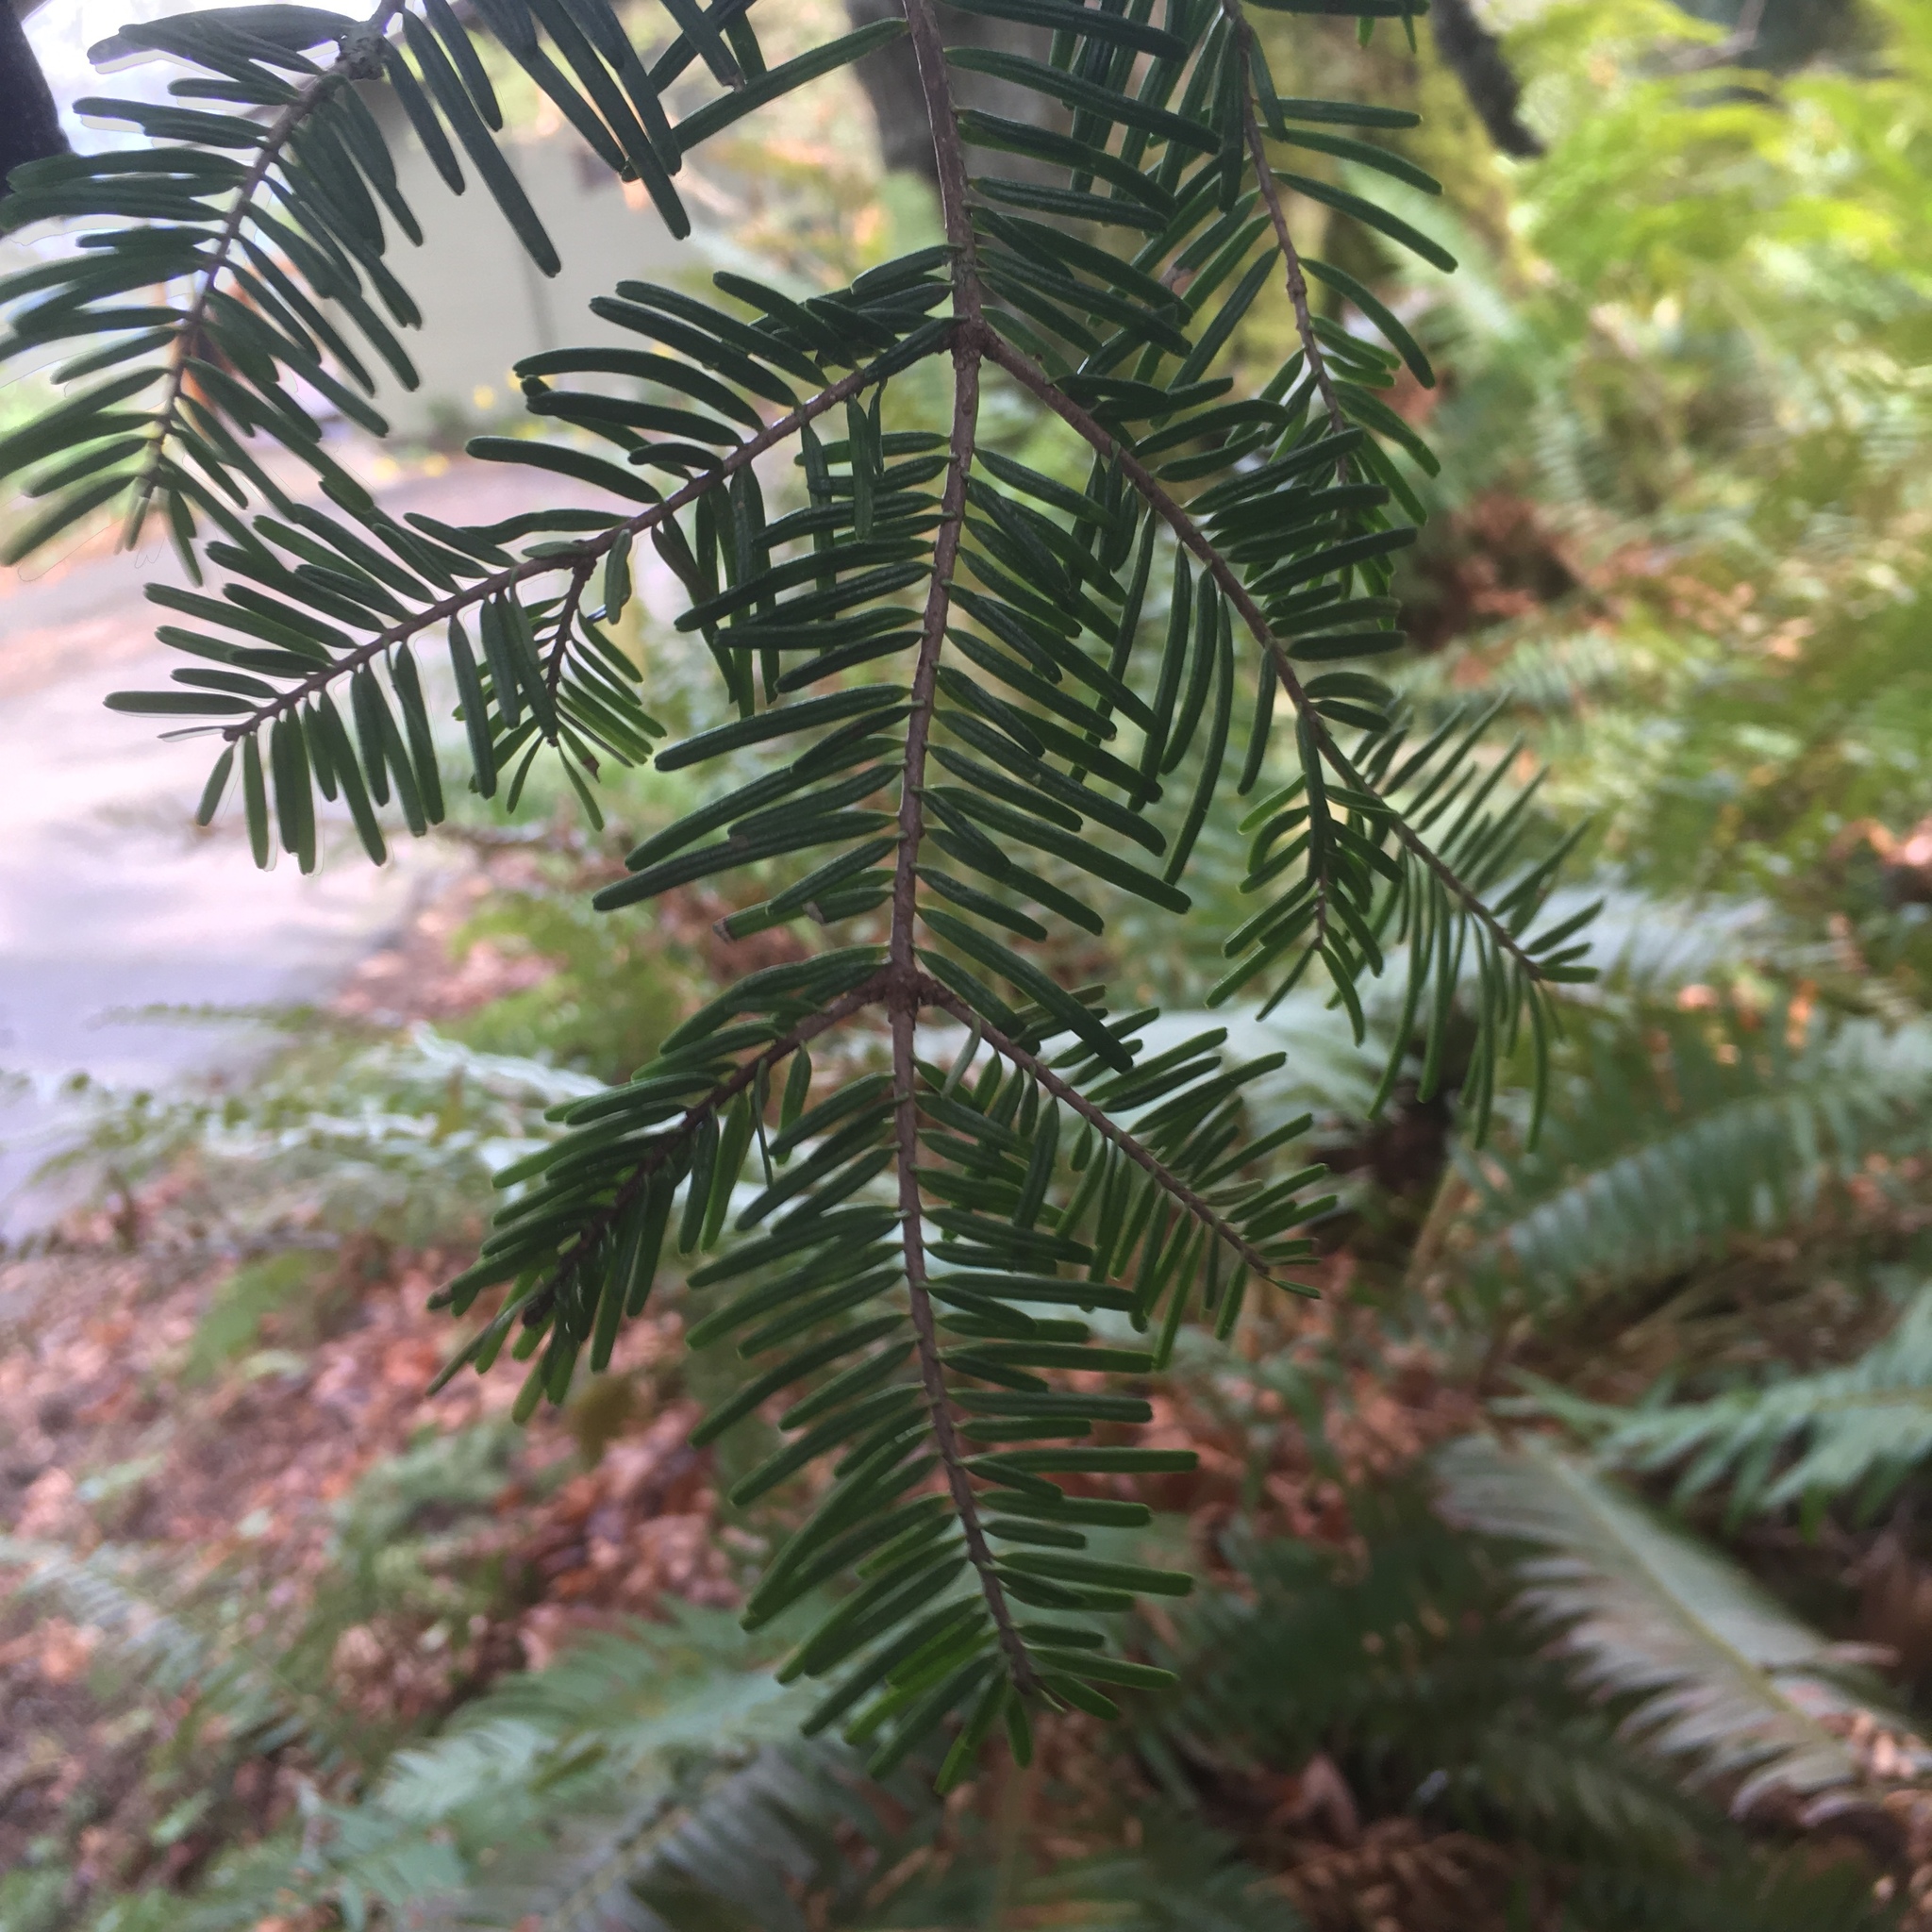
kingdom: Plantae
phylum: Tracheophyta
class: Pinopsida
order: Pinales
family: Pinaceae
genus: Abies
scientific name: Abies grandis
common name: Giant fir
